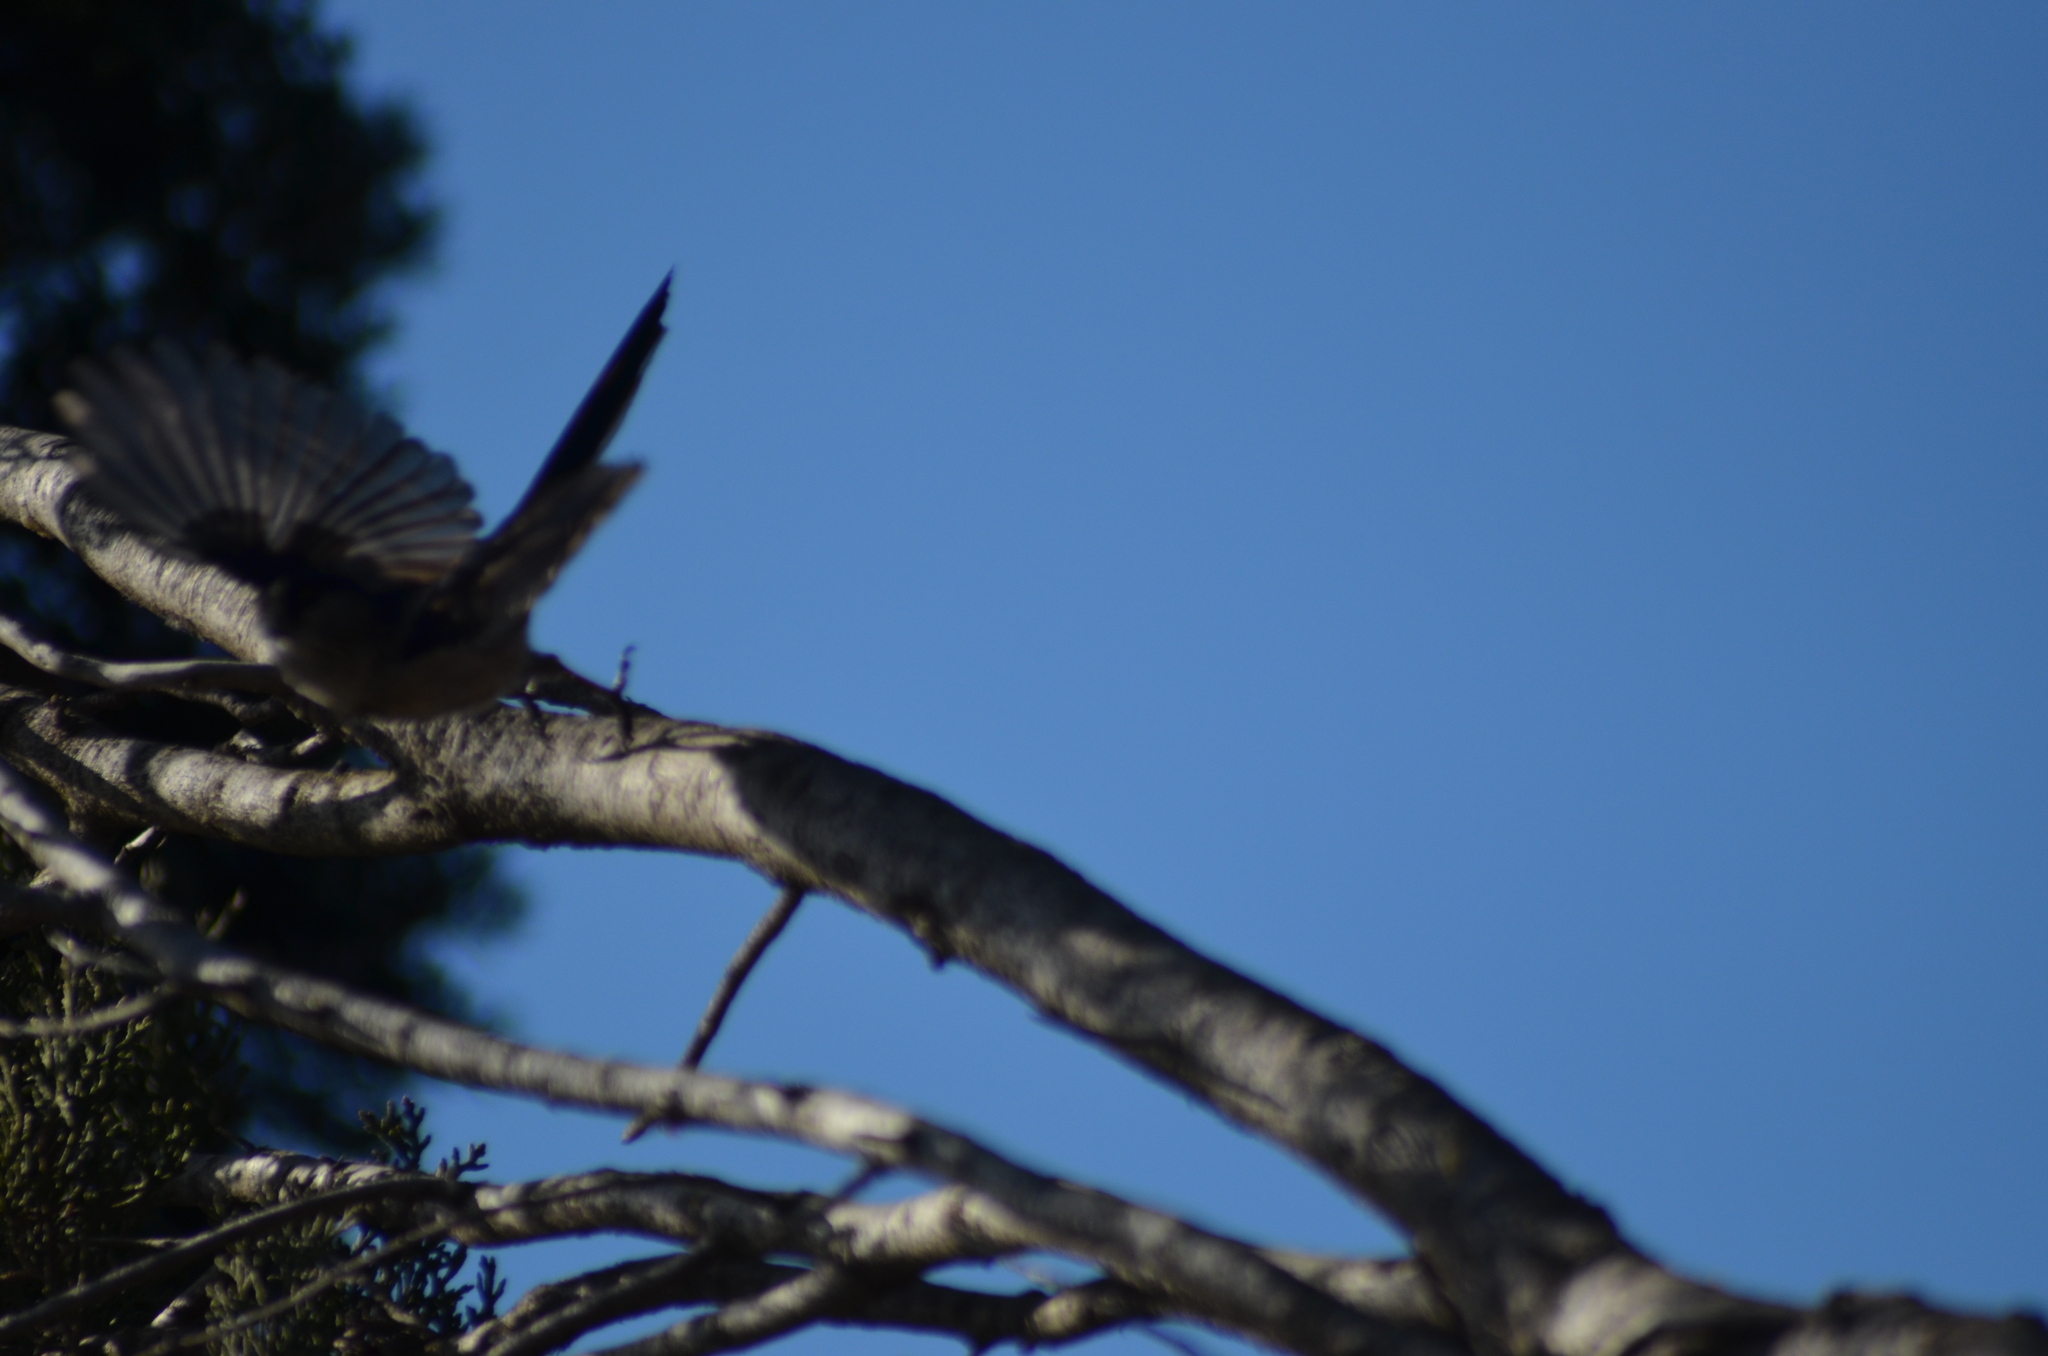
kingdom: Animalia
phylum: Chordata
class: Aves
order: Passeriformes
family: Aegithalidae
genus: Aegithalos
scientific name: Aegithalos caudatus
